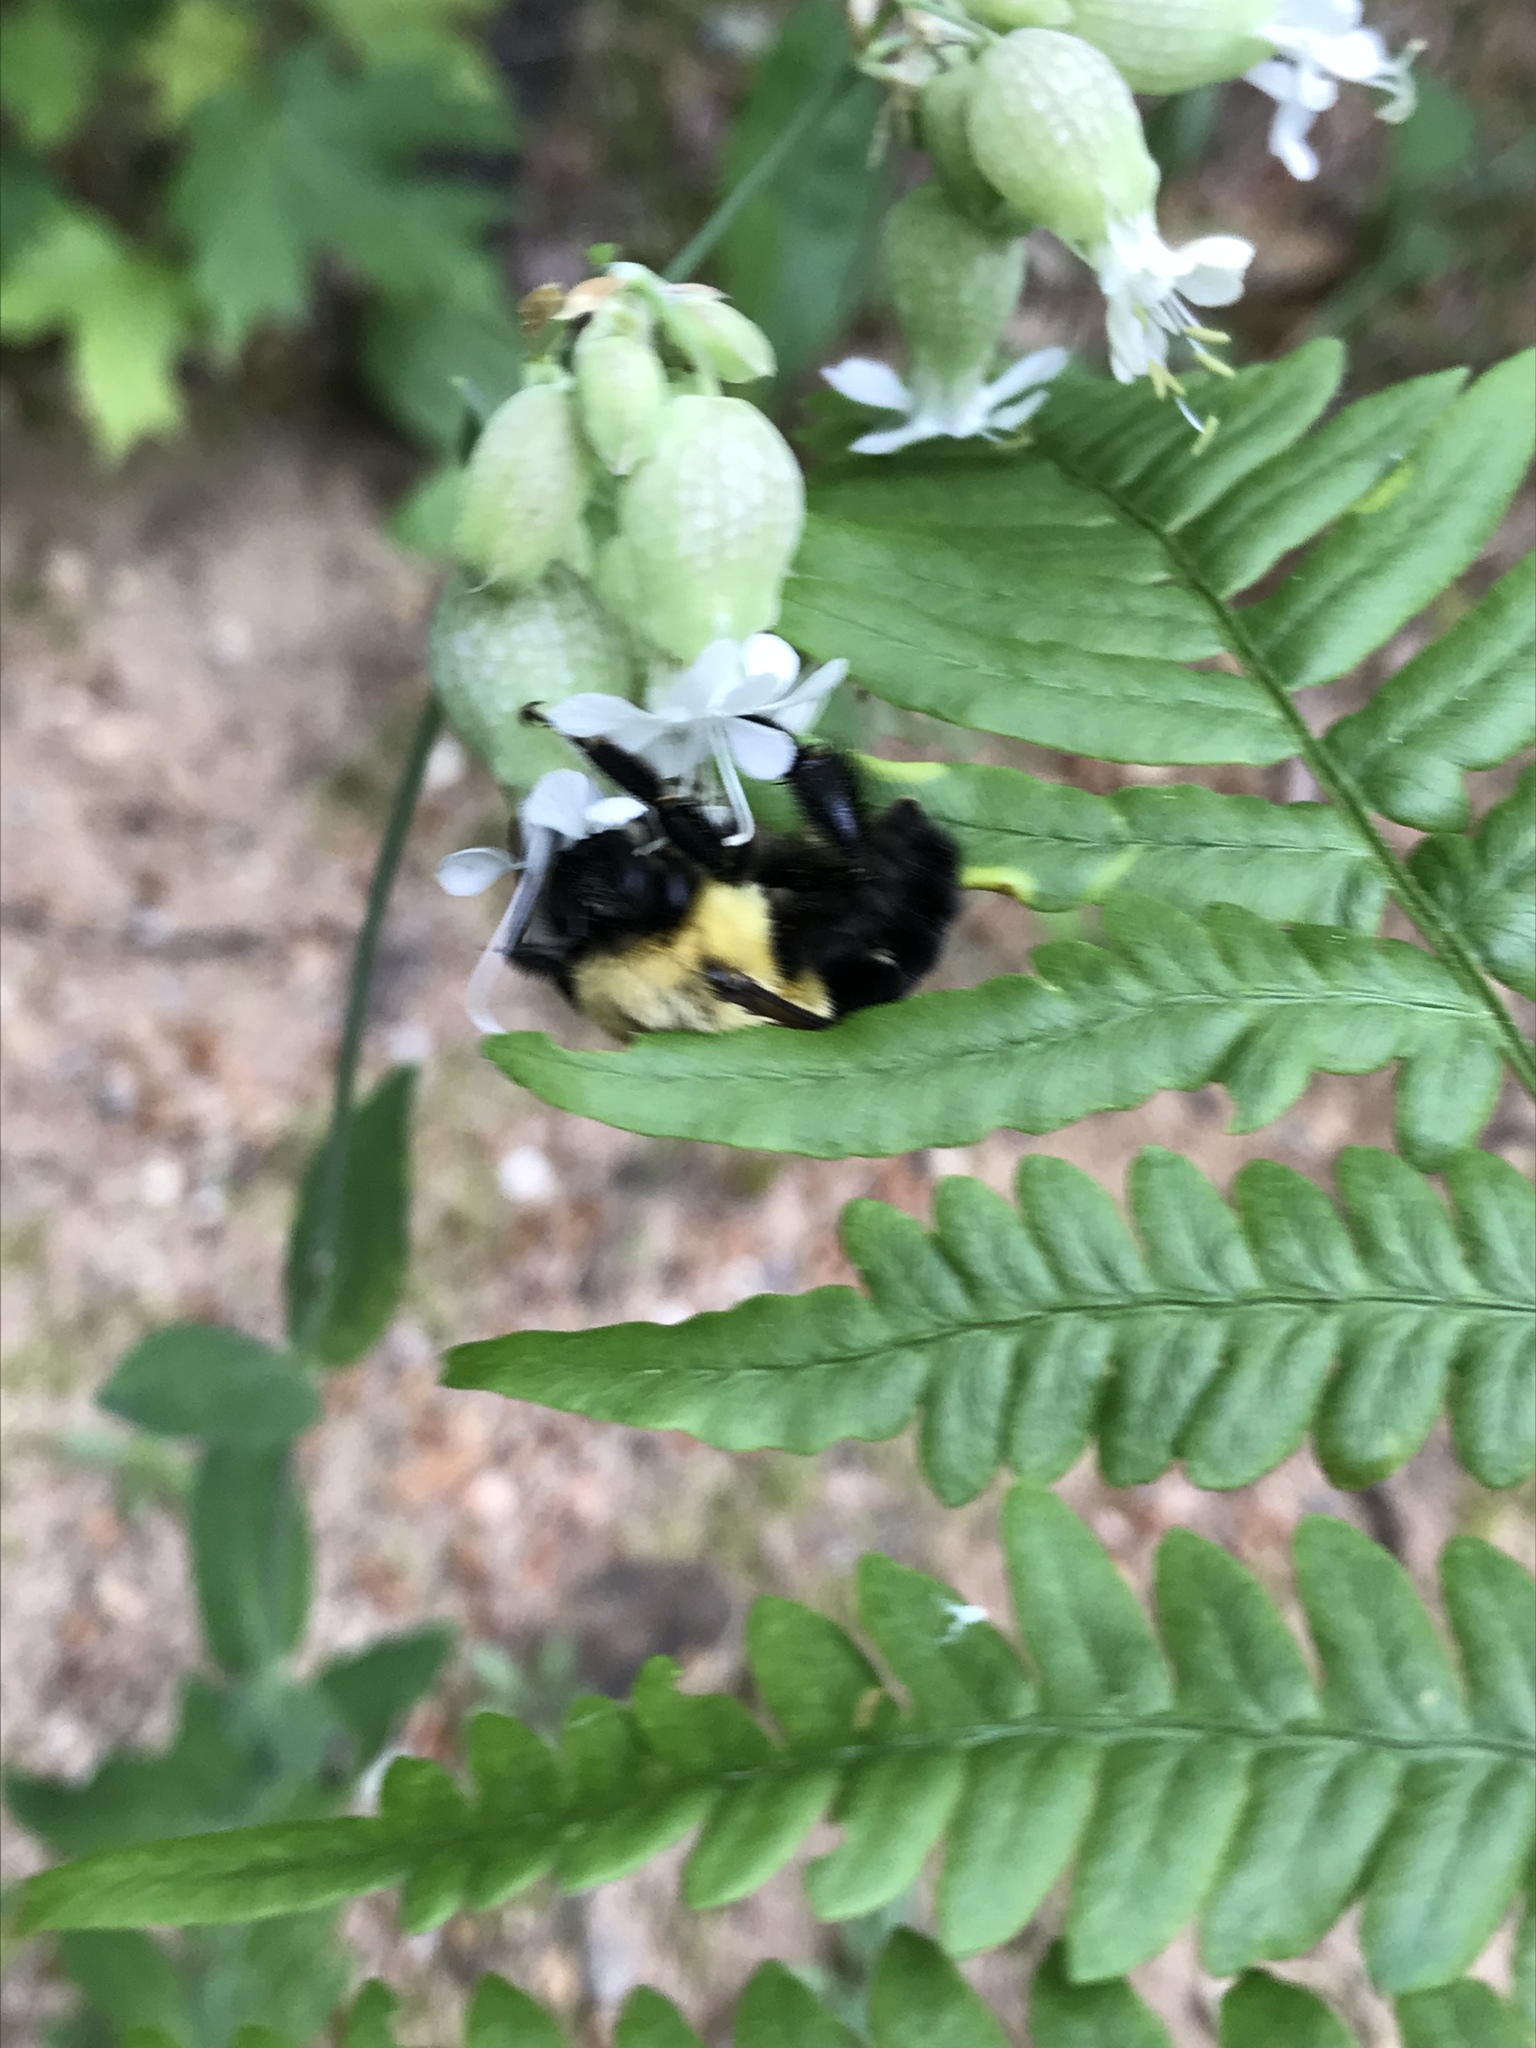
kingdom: Animalia
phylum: Arthropoda
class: Insecta
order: Hymenoptera
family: Apidae
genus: Bombus
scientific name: Bombus impatiens
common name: Common eastern bumble bee
